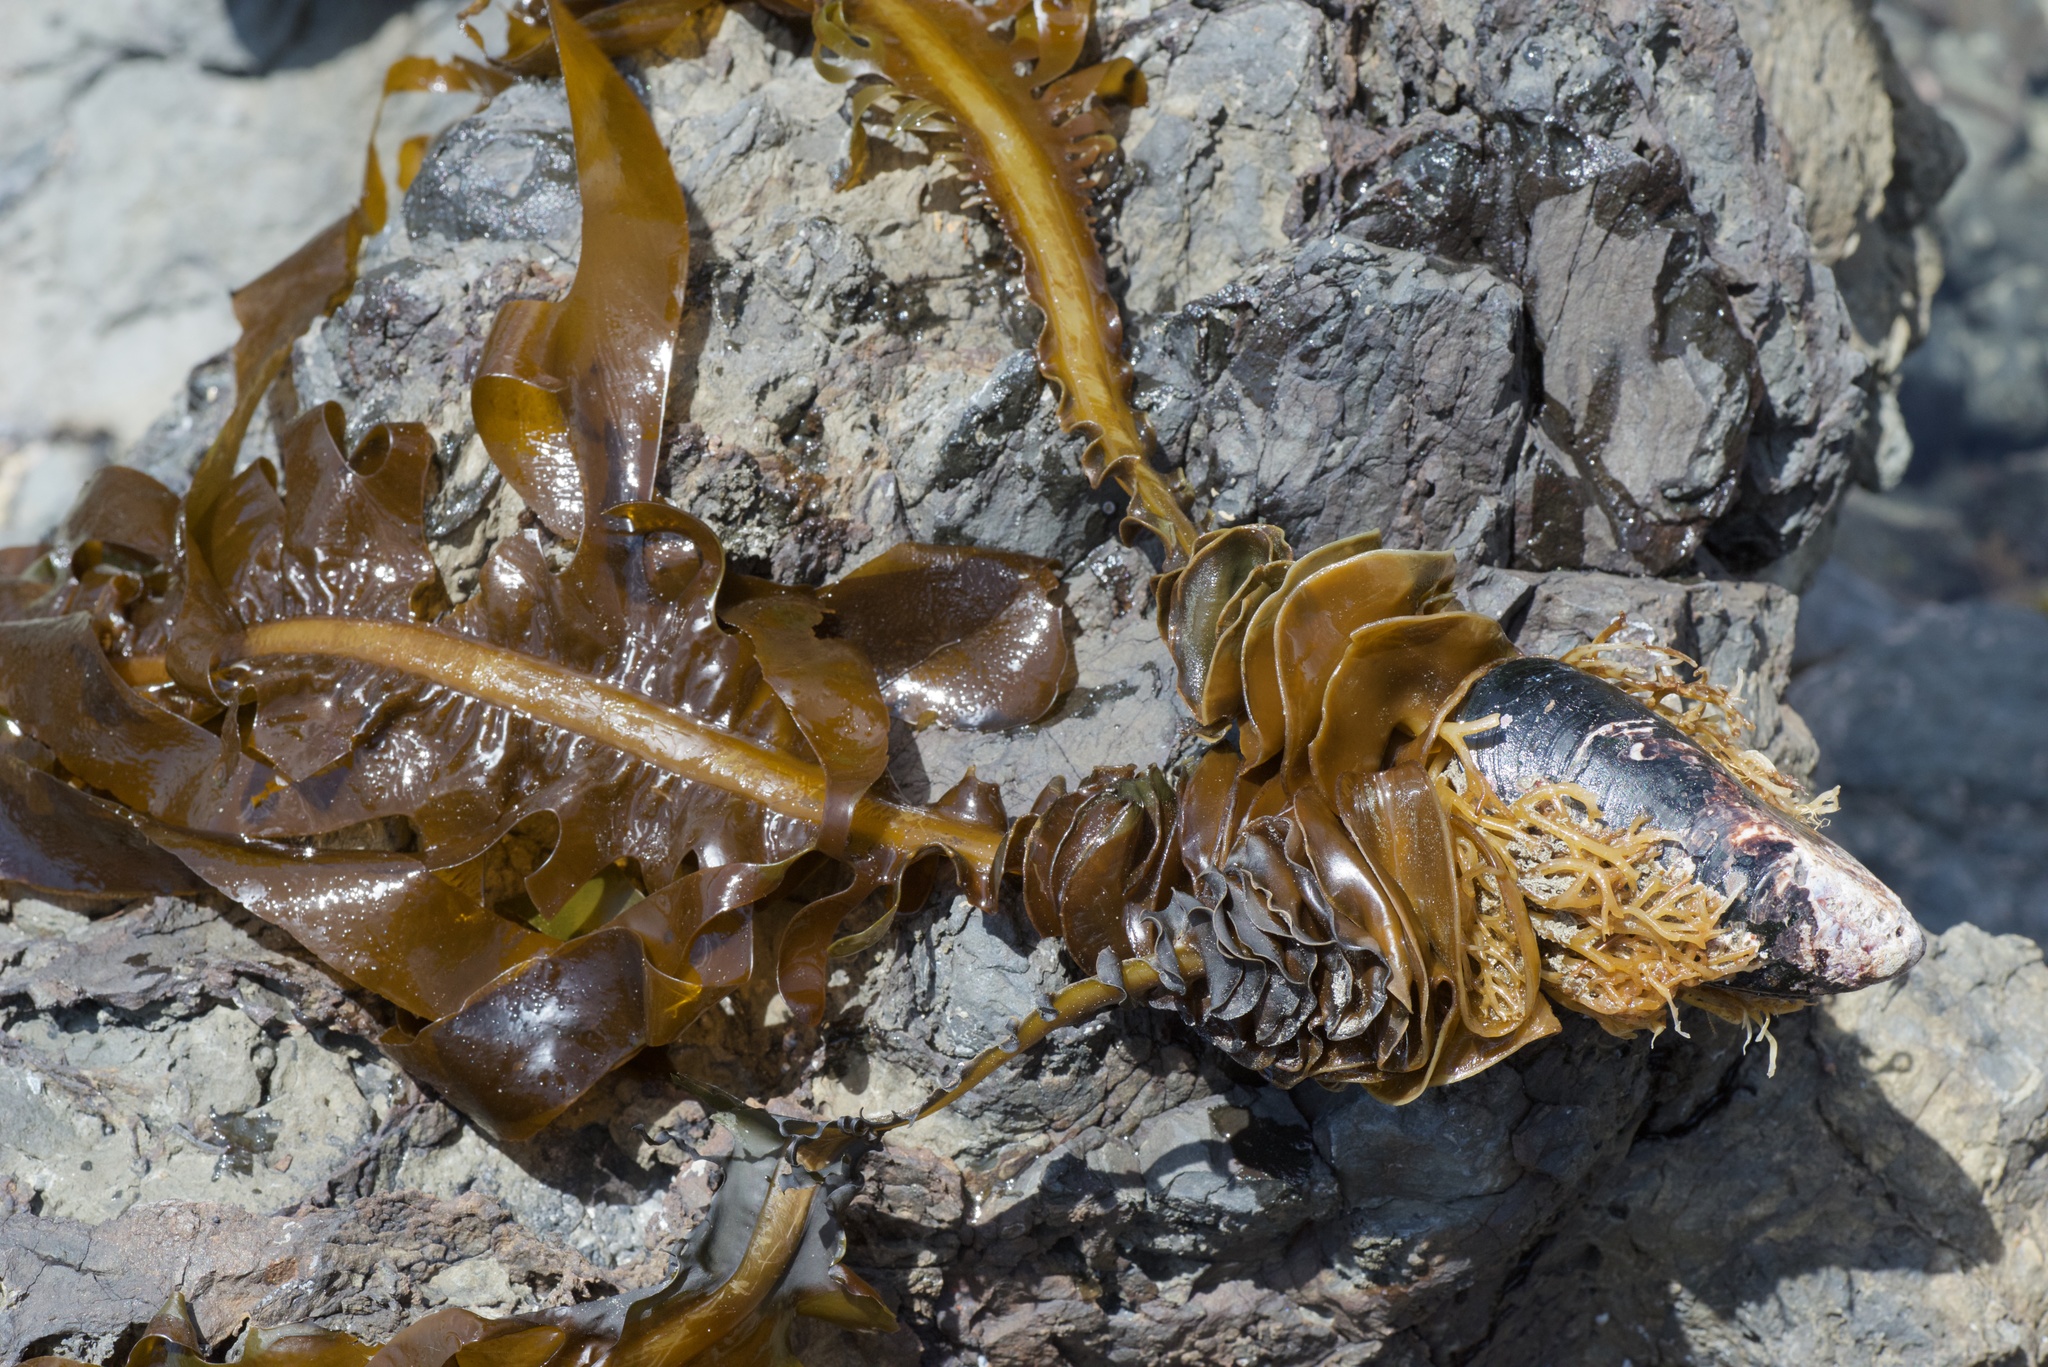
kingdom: Chromista
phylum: Ochrophyta
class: Phaeophyceae
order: Laminariales
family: Alariaceae
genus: Undaria
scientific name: Undaria pinnatifida
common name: Asian kelp
